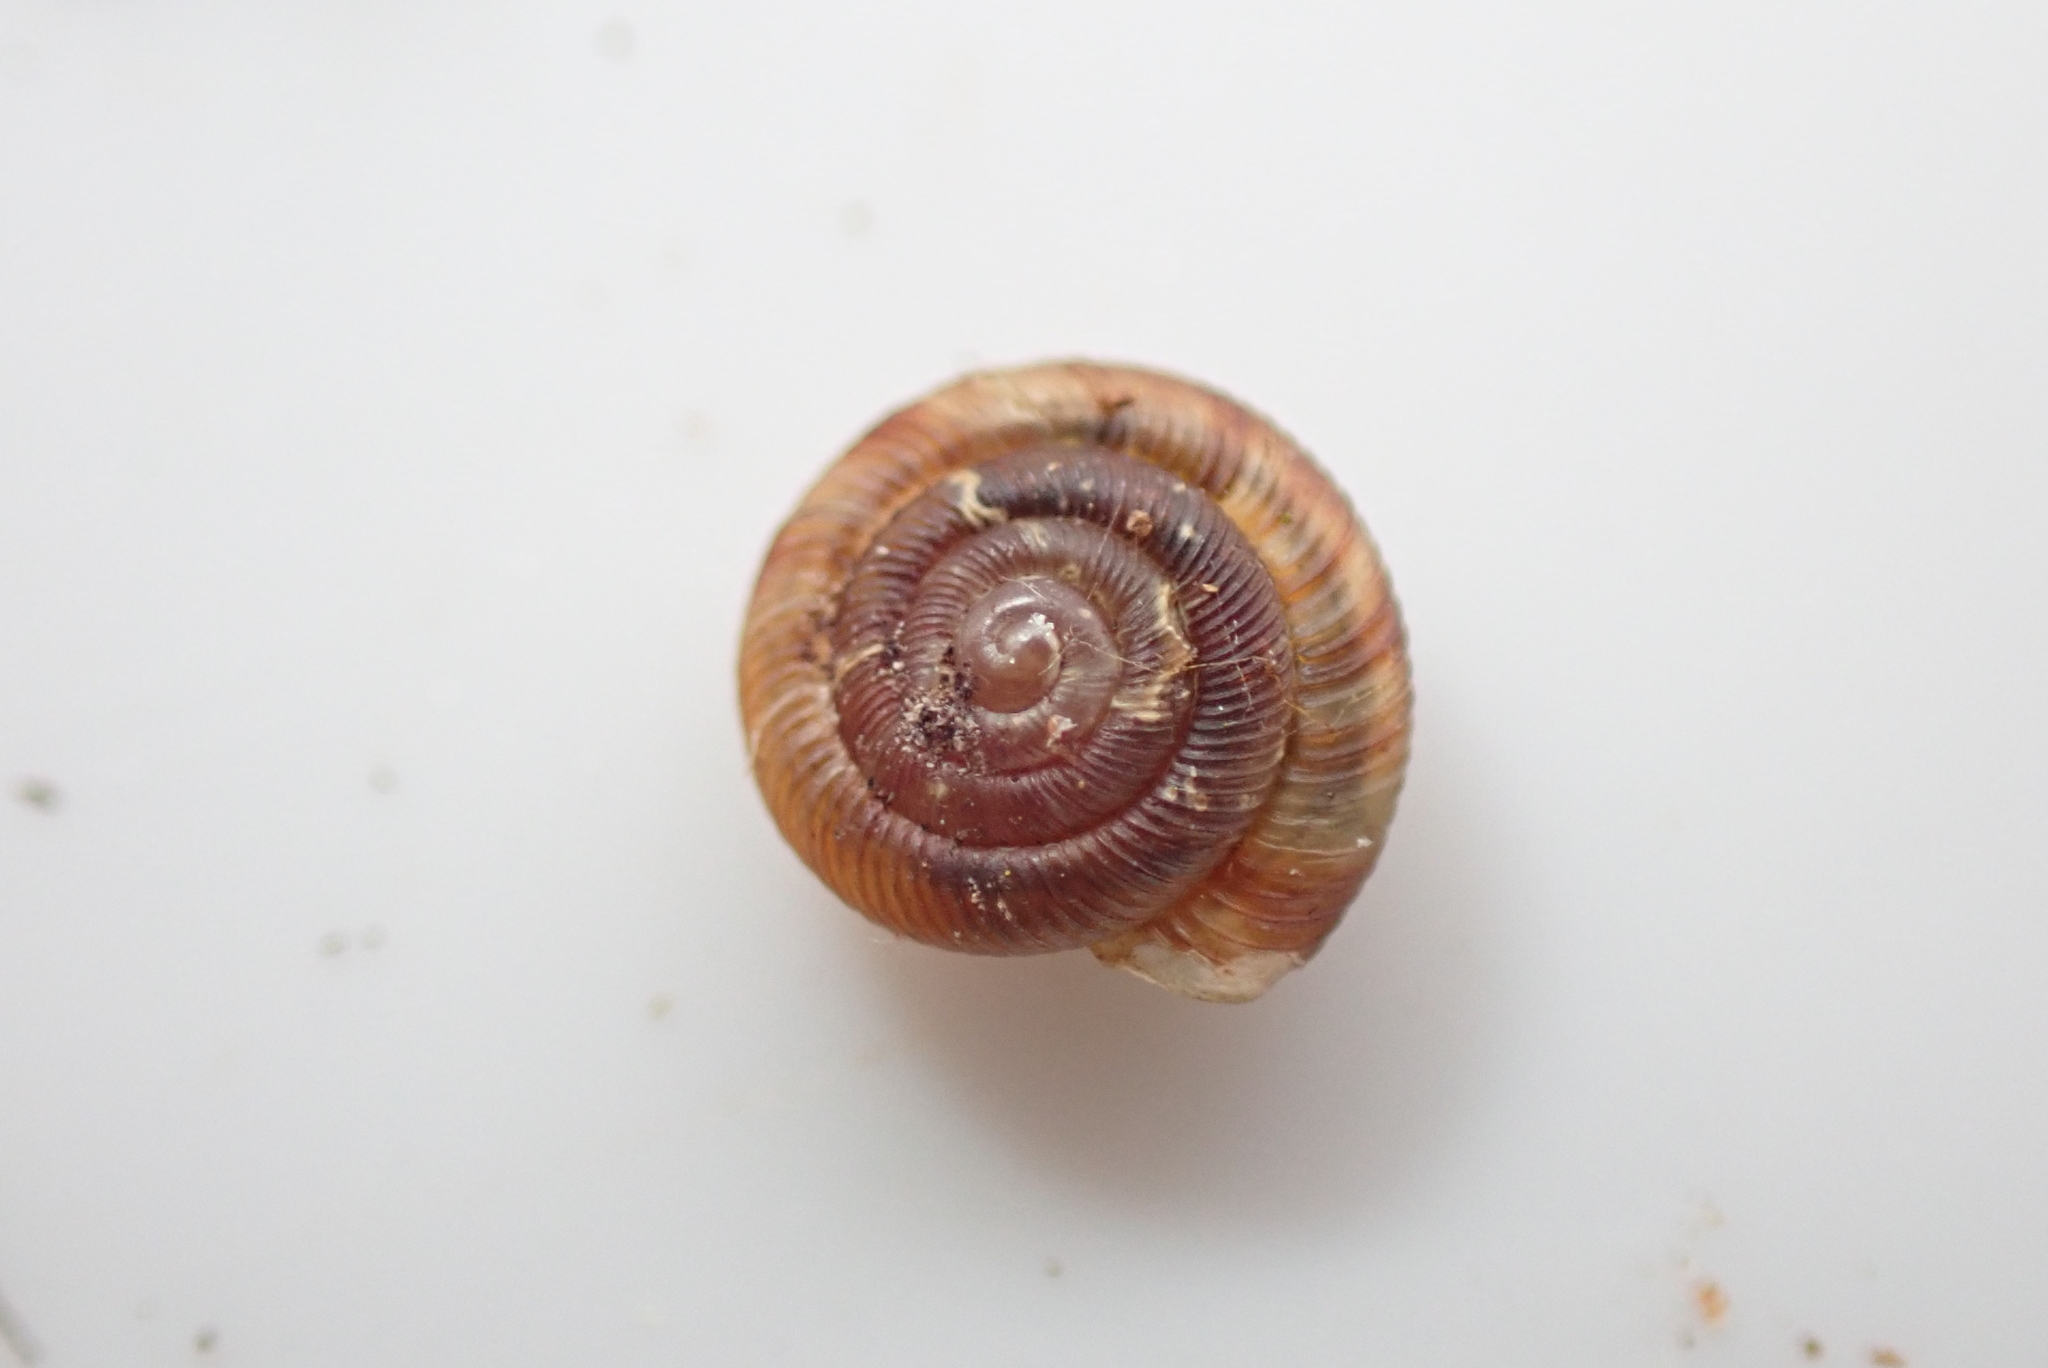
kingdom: Animalia
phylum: Mollusca
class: Gastropoda
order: Stylommatophora
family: Discidae
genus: Discus
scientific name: Discus rotundatus
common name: Rounded snail
